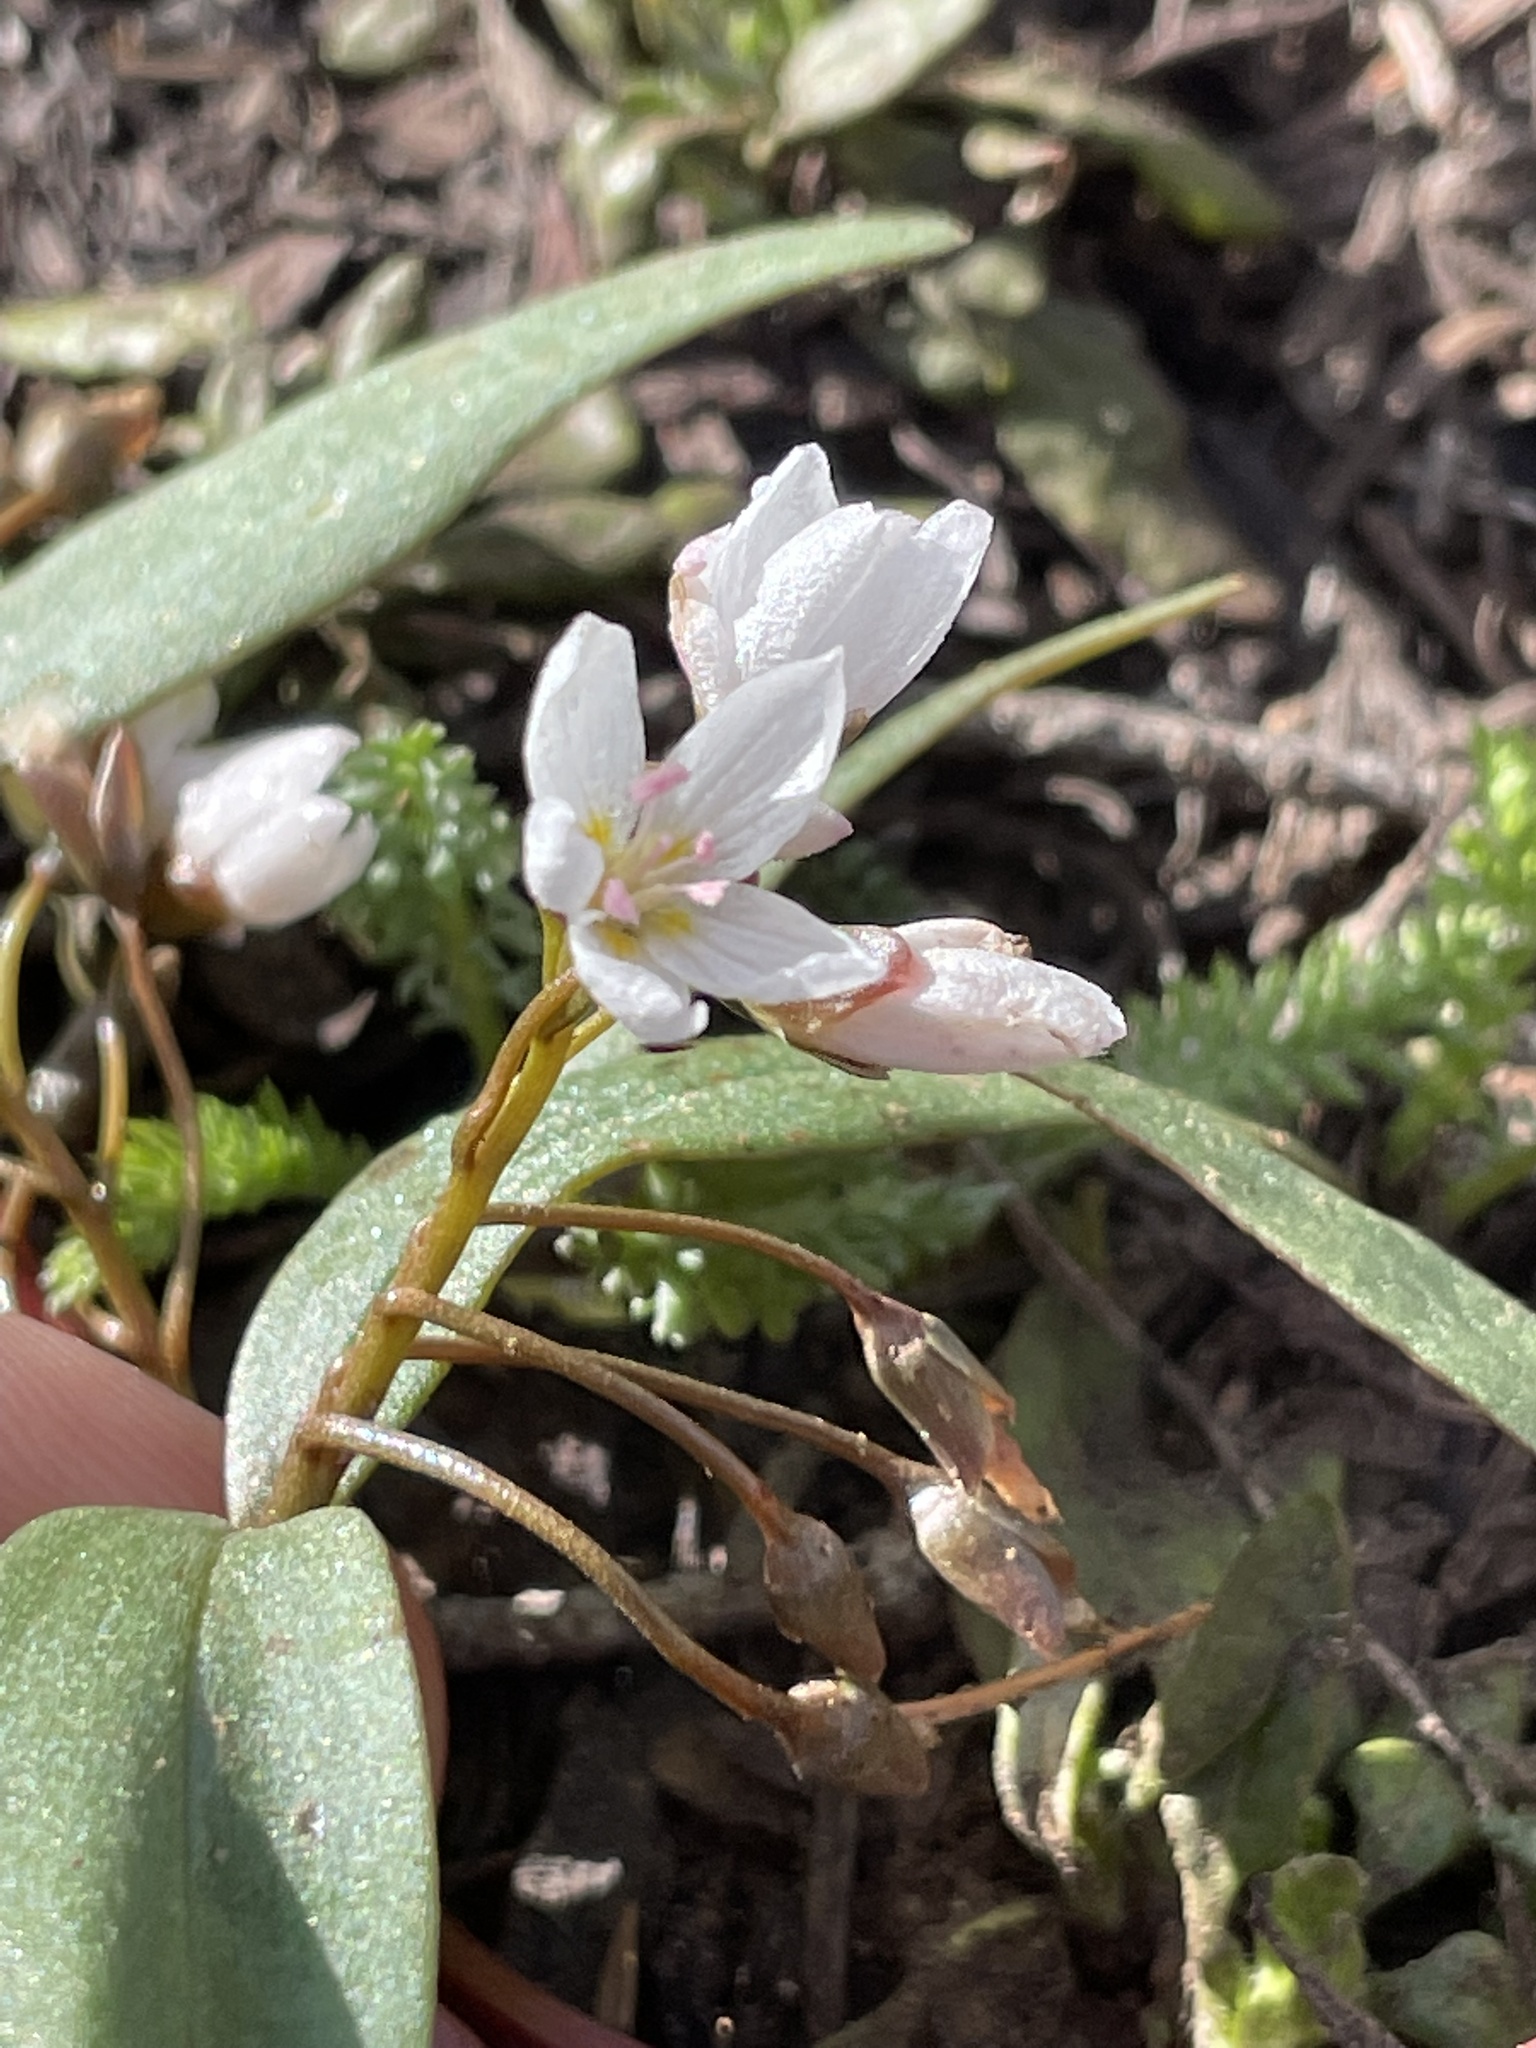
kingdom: Plantae
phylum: Tracheophyta
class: Magnoliopsida
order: Caryophyllales
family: Montiaceae
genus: Claytonia
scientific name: Claytonia lanceolata
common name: Western spring-beauty
